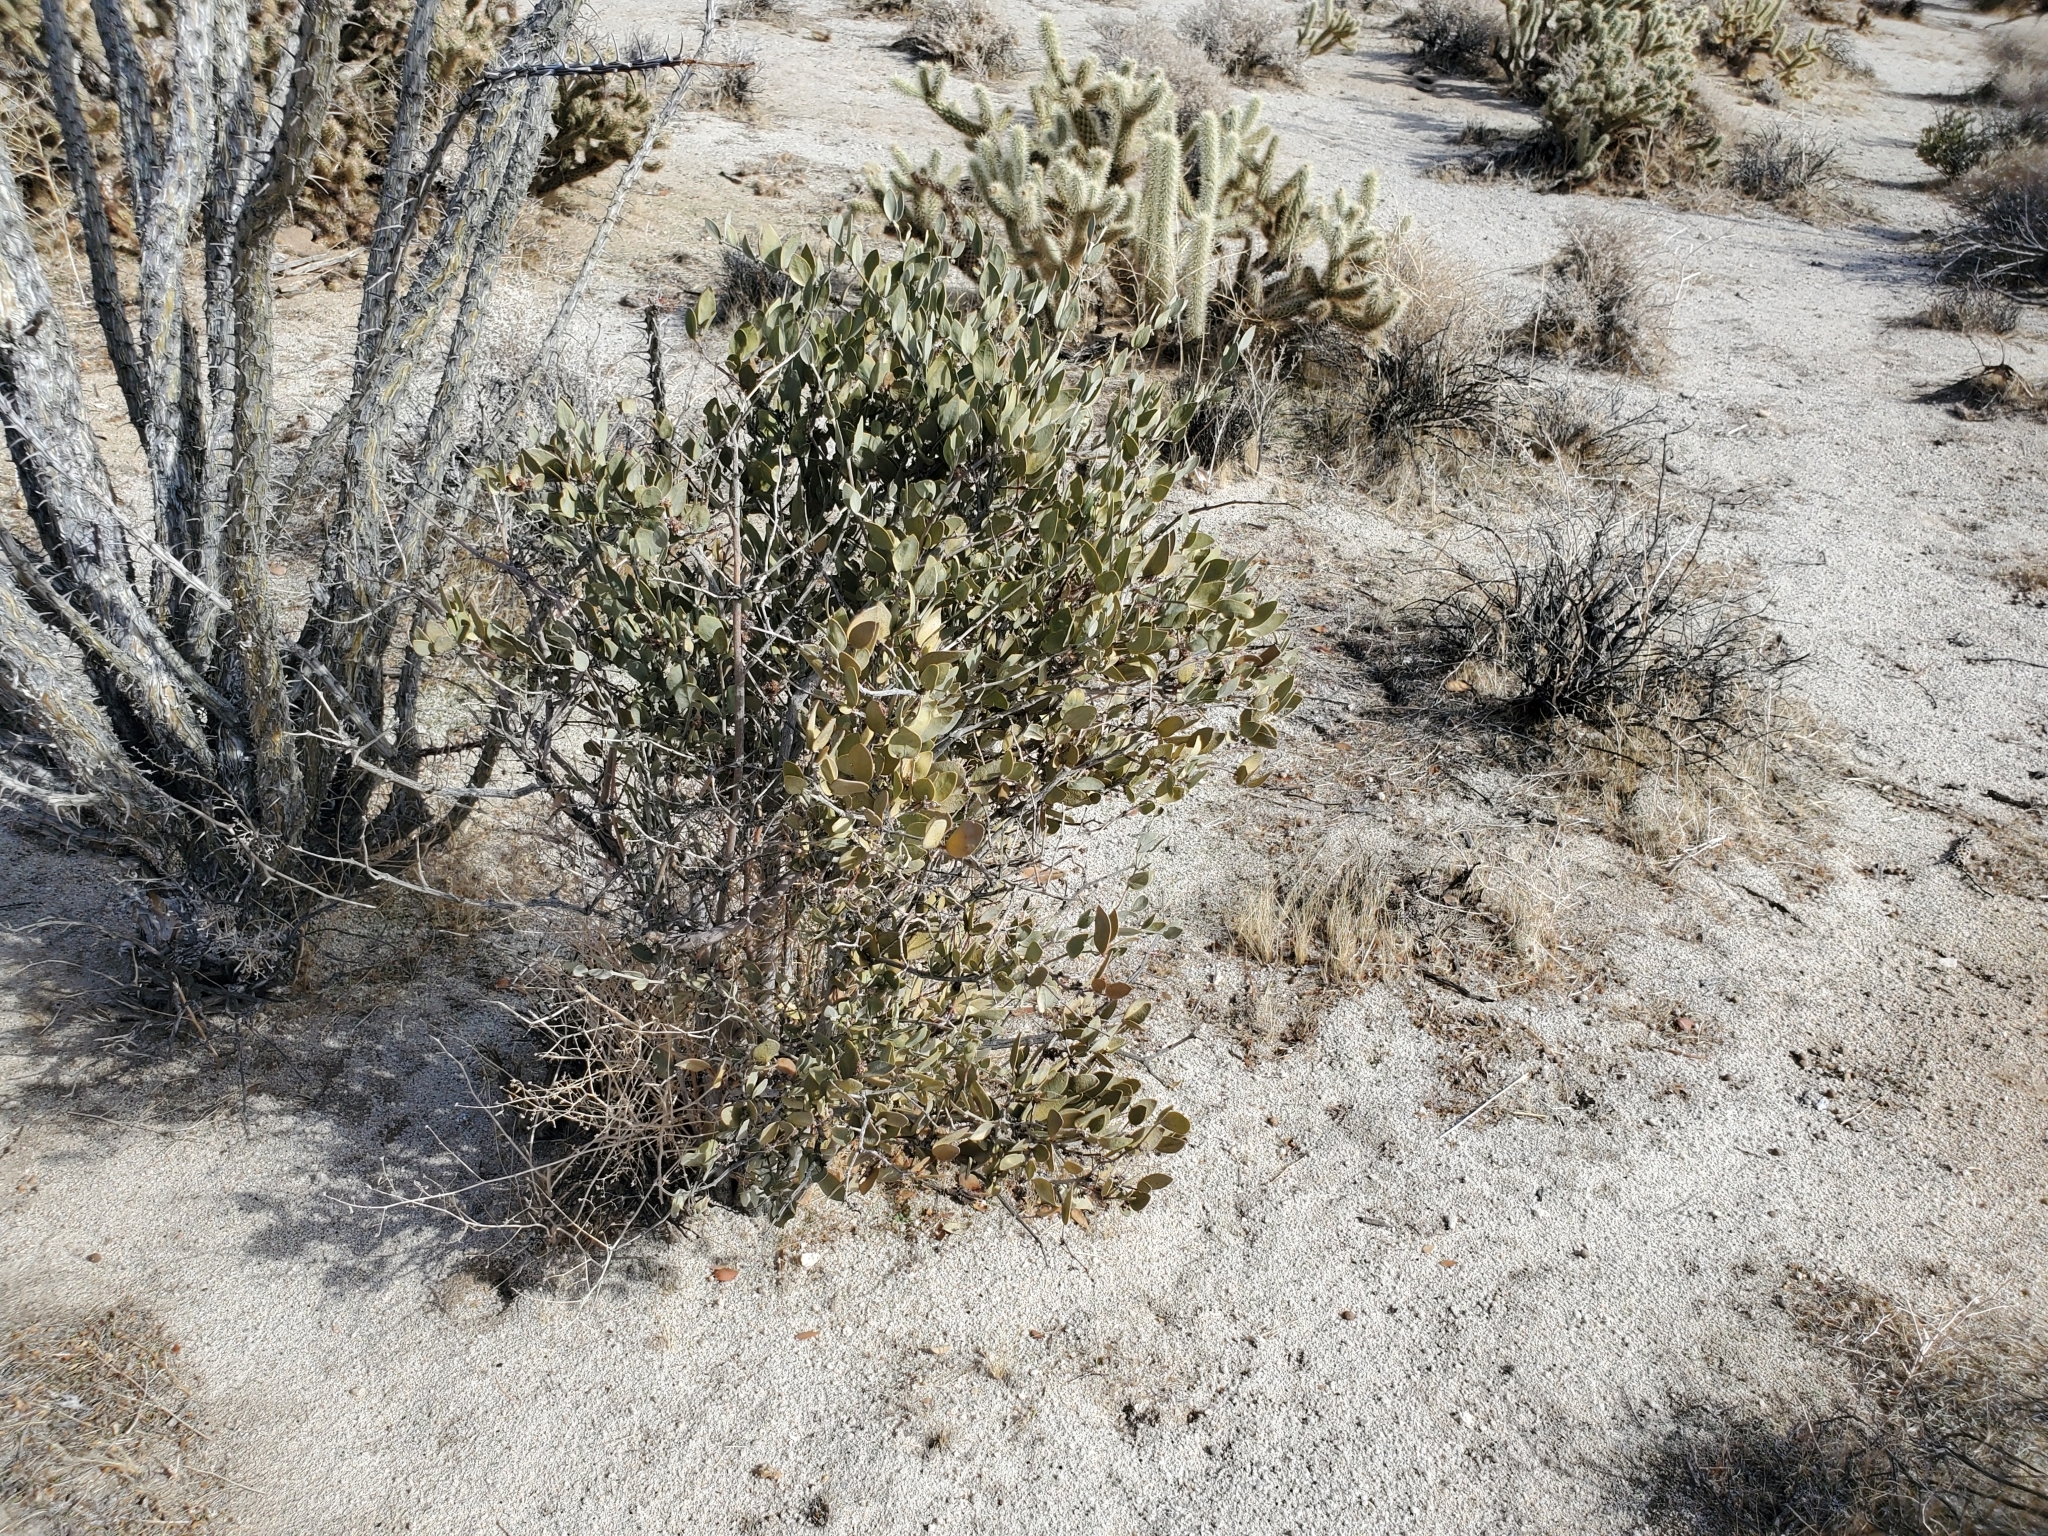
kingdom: Plantae
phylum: Tracheophyta
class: Magnoliopsida
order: Caryophyllales
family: Simmondsiaceae
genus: Simmondsia
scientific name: Simmondsia chinensis
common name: Jojoba
